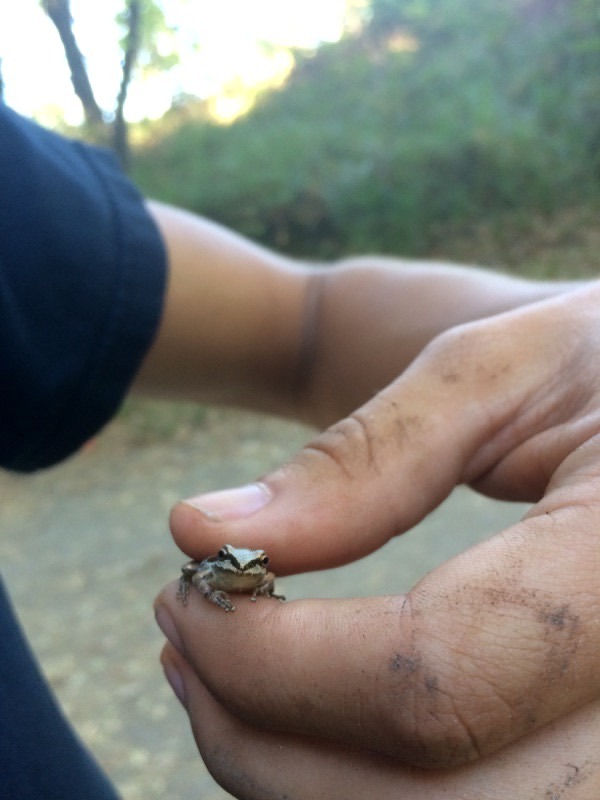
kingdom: Animalia
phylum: Chordata
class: Amphibia
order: Anura
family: Hylidae
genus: Pseudacris
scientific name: Pseudacris regilla
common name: Pacific chorus frog
